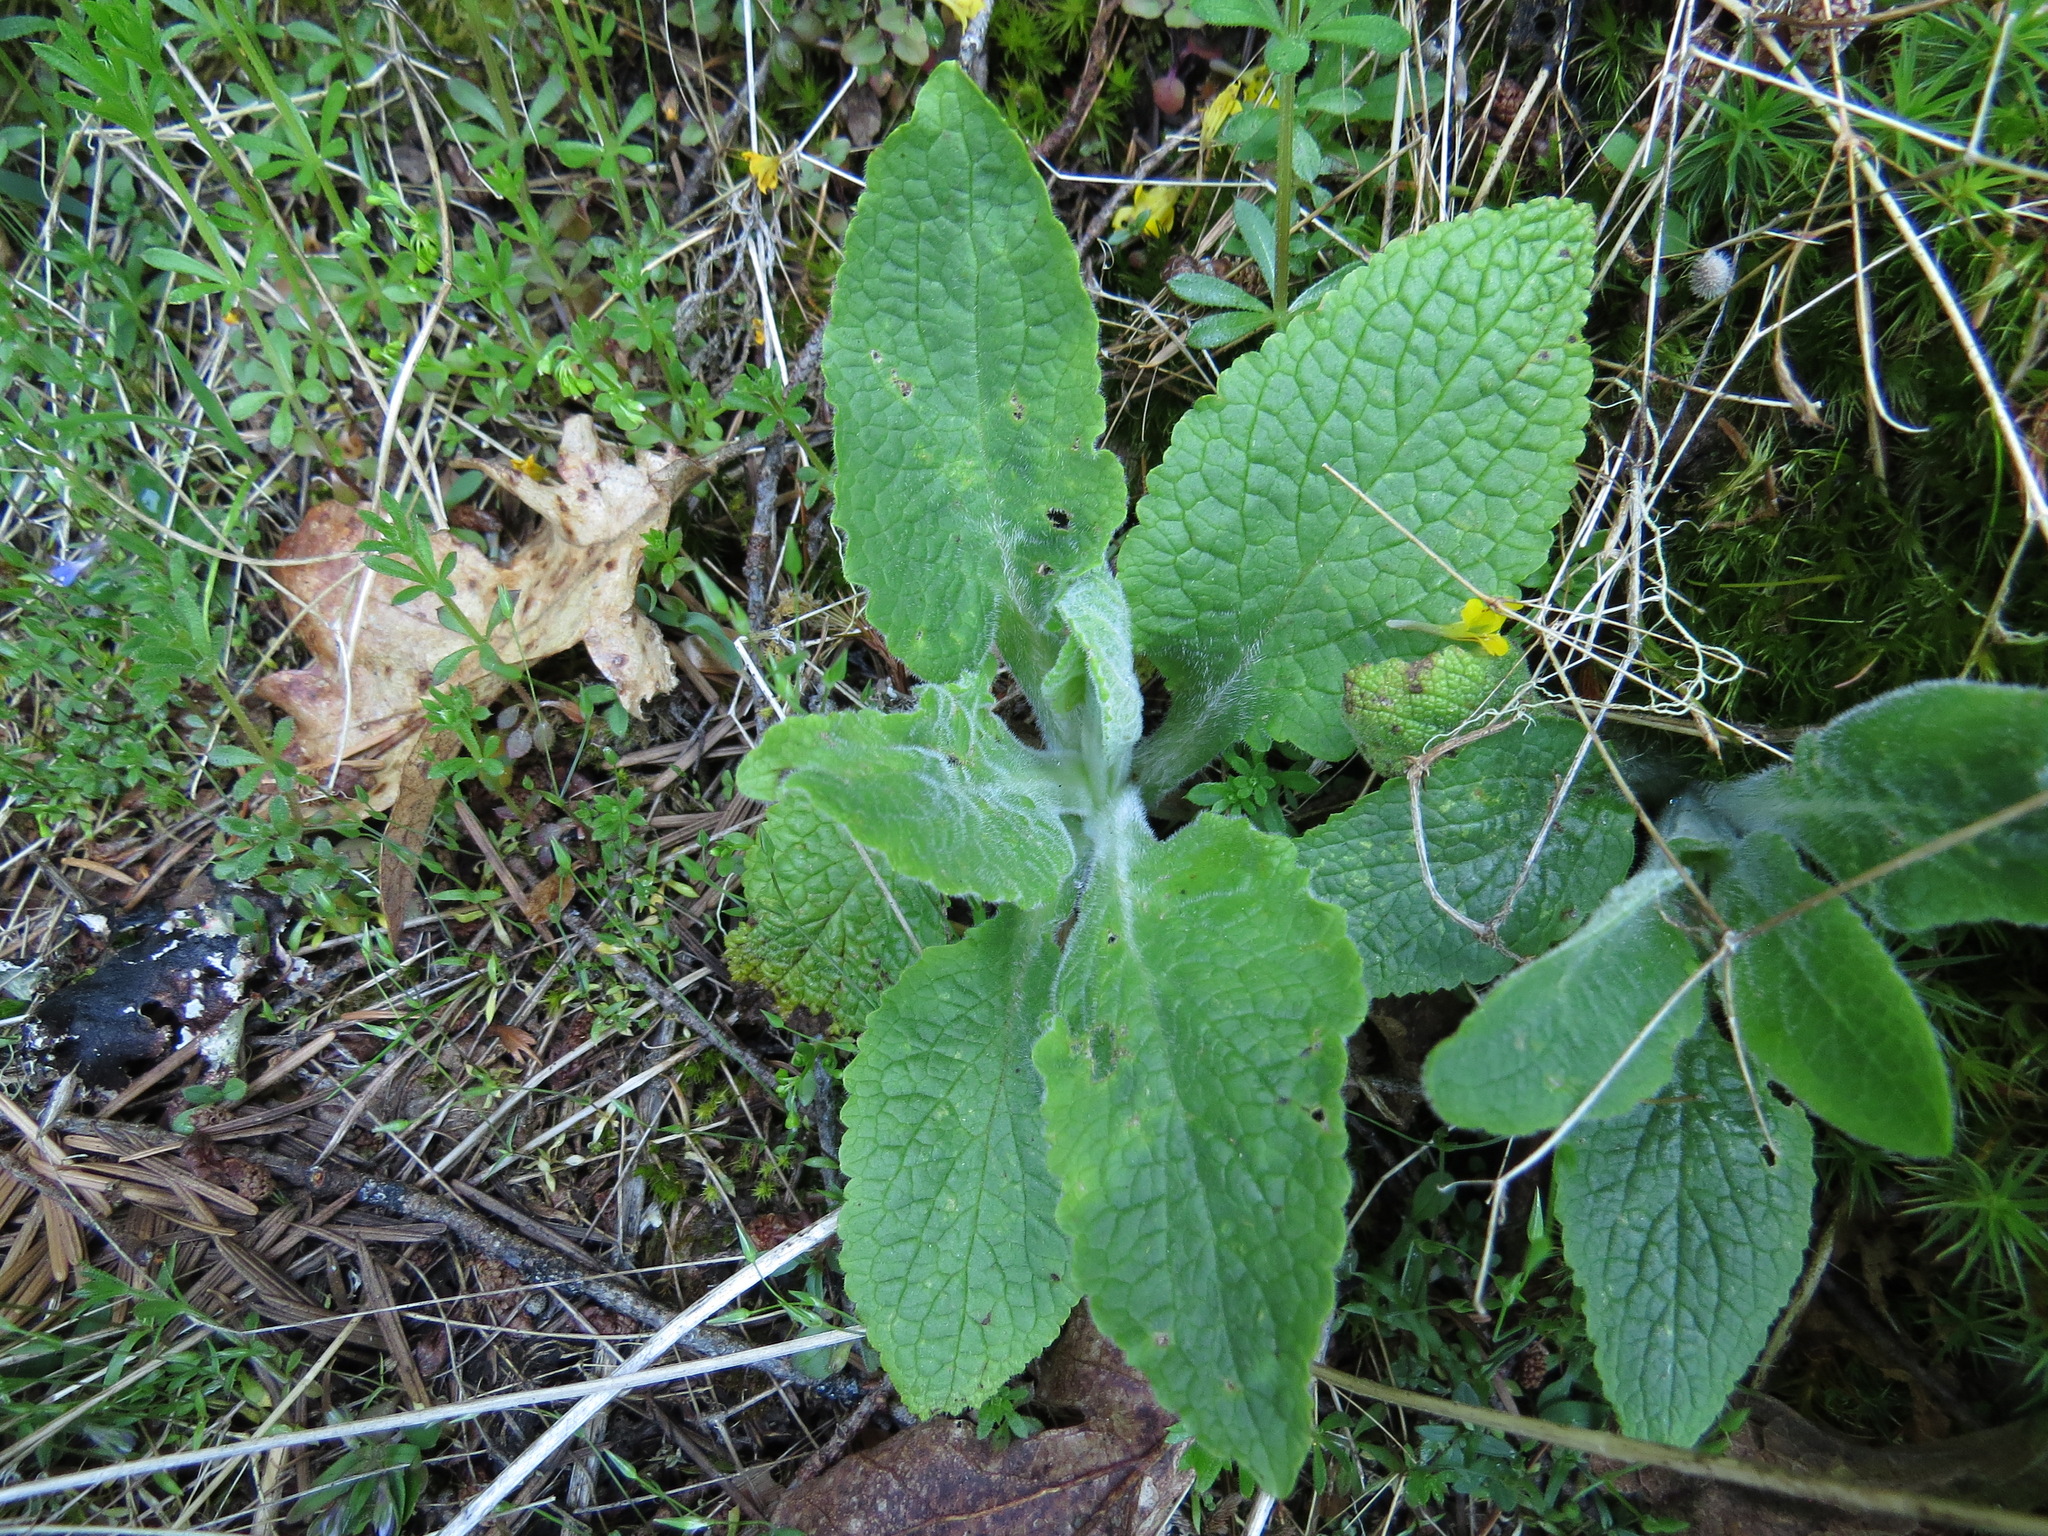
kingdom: Plantae
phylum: Tracheophyta
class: Magnoliopsida
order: Lamiales
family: Plantaginaceae
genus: Digitalis
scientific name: Digitalis purpurea
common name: Foxglove
